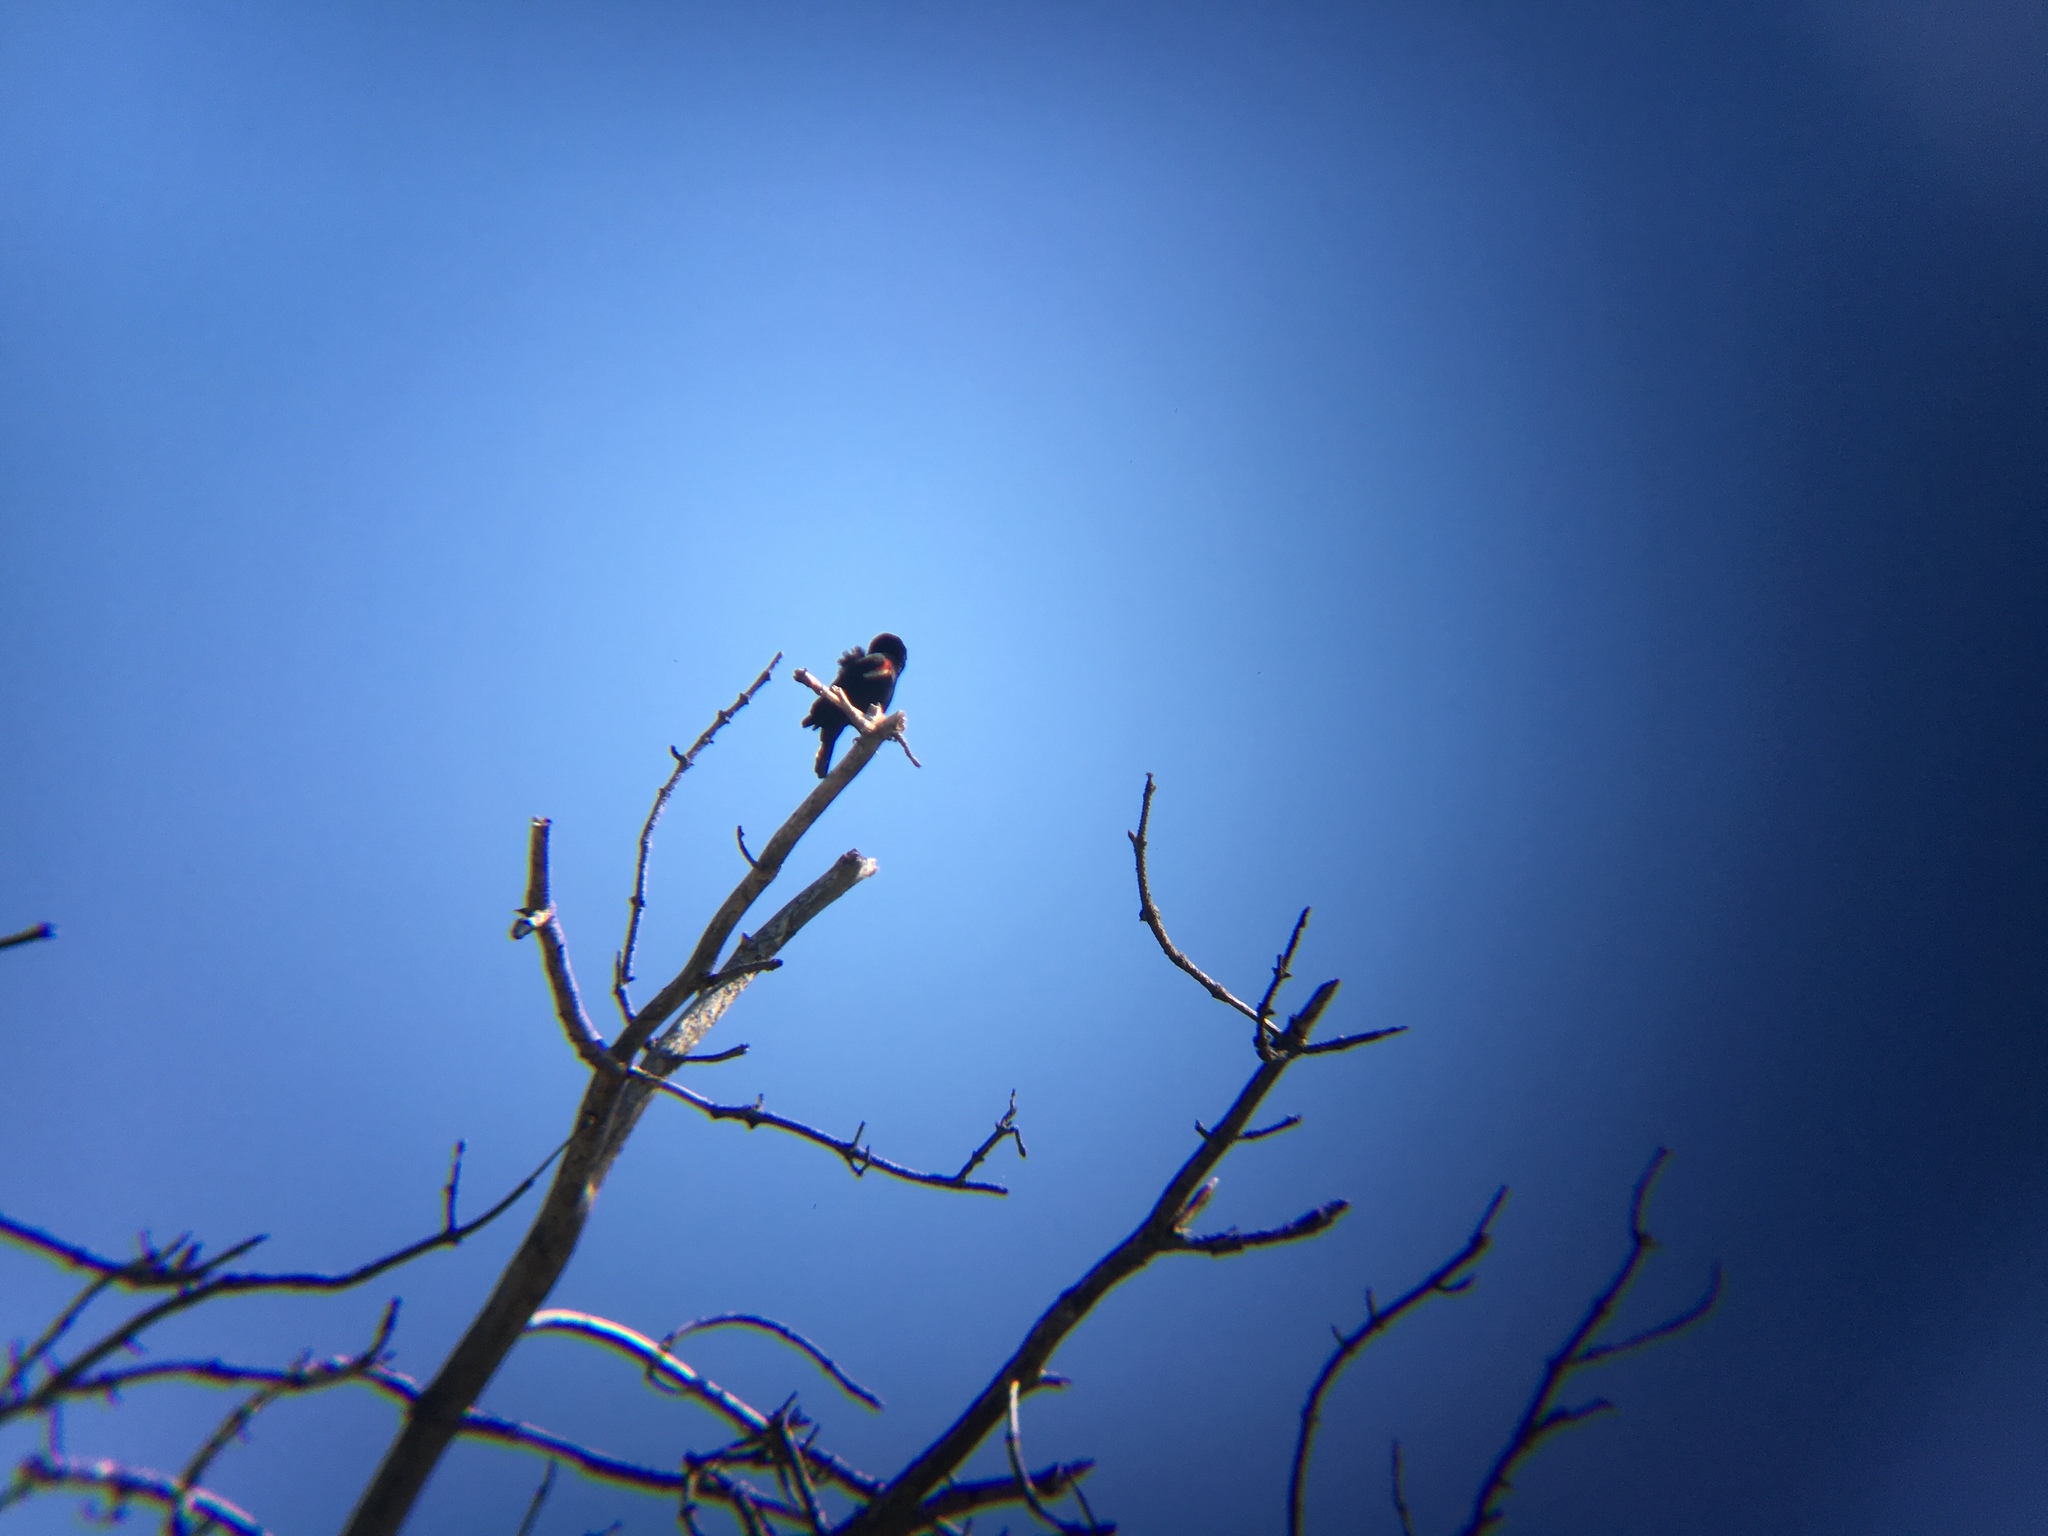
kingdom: Animalia
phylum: Chordata
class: Aves
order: Passeriformes
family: Icteridae
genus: Agelaius
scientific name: Agelaius phoeniceus
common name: Red-winged blackbird
